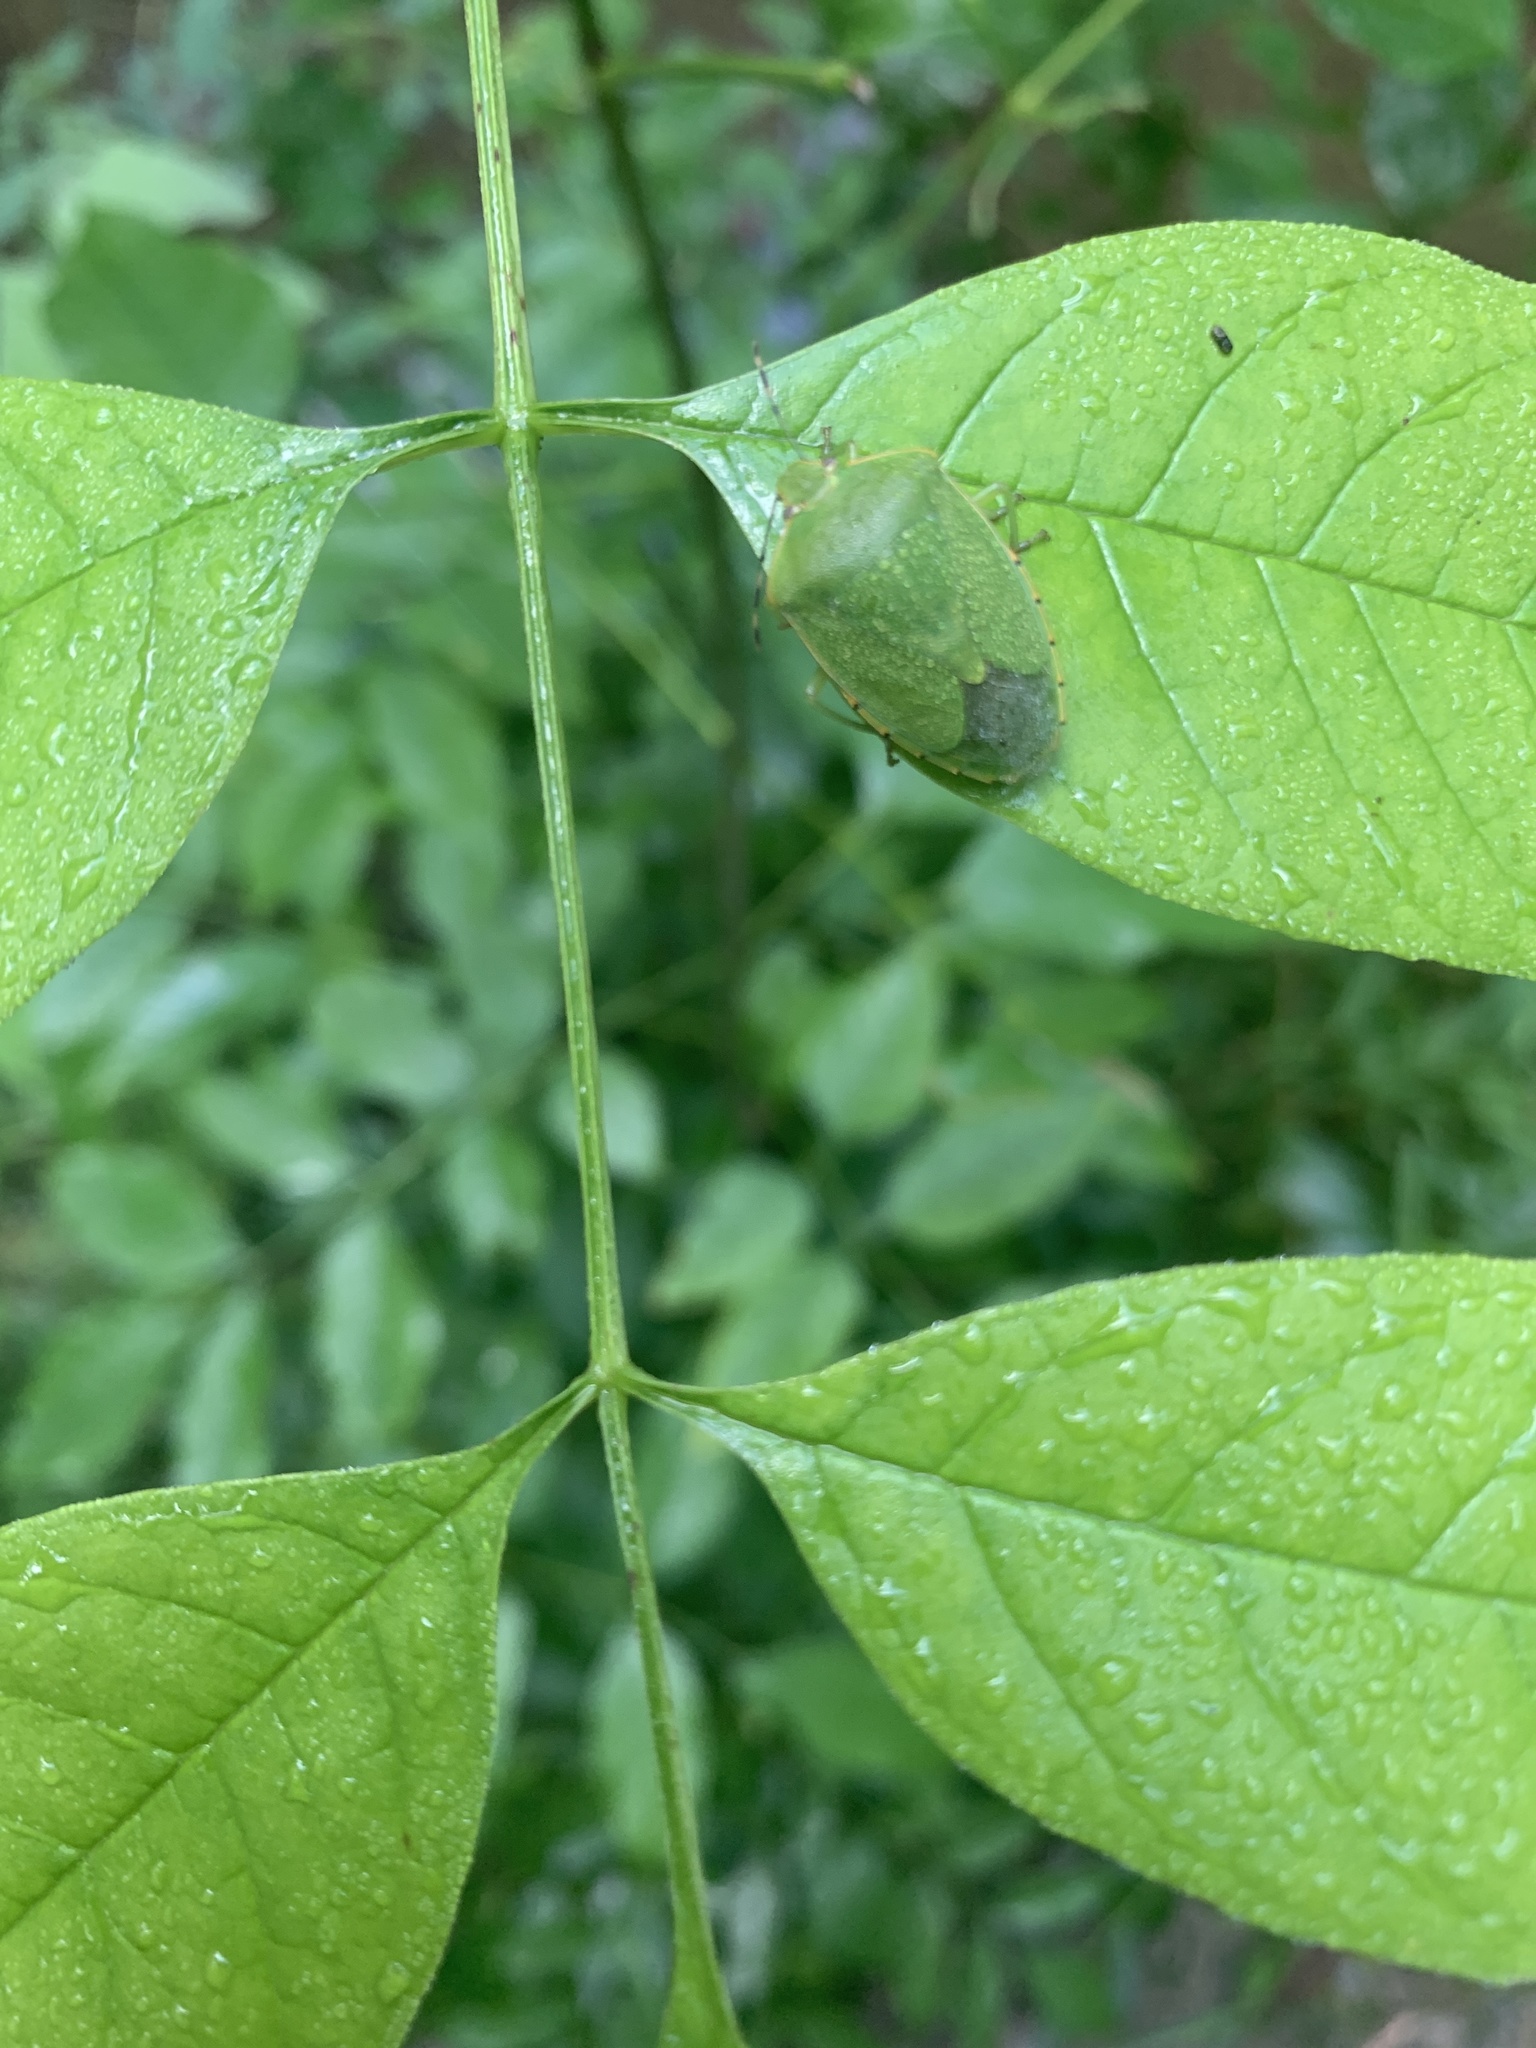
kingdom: Animalia
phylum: Arthropoda
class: Insecta
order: Hemiptera
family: Pentatomidae
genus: Chinavia
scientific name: Chinavia hilaris
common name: Green stink bug
